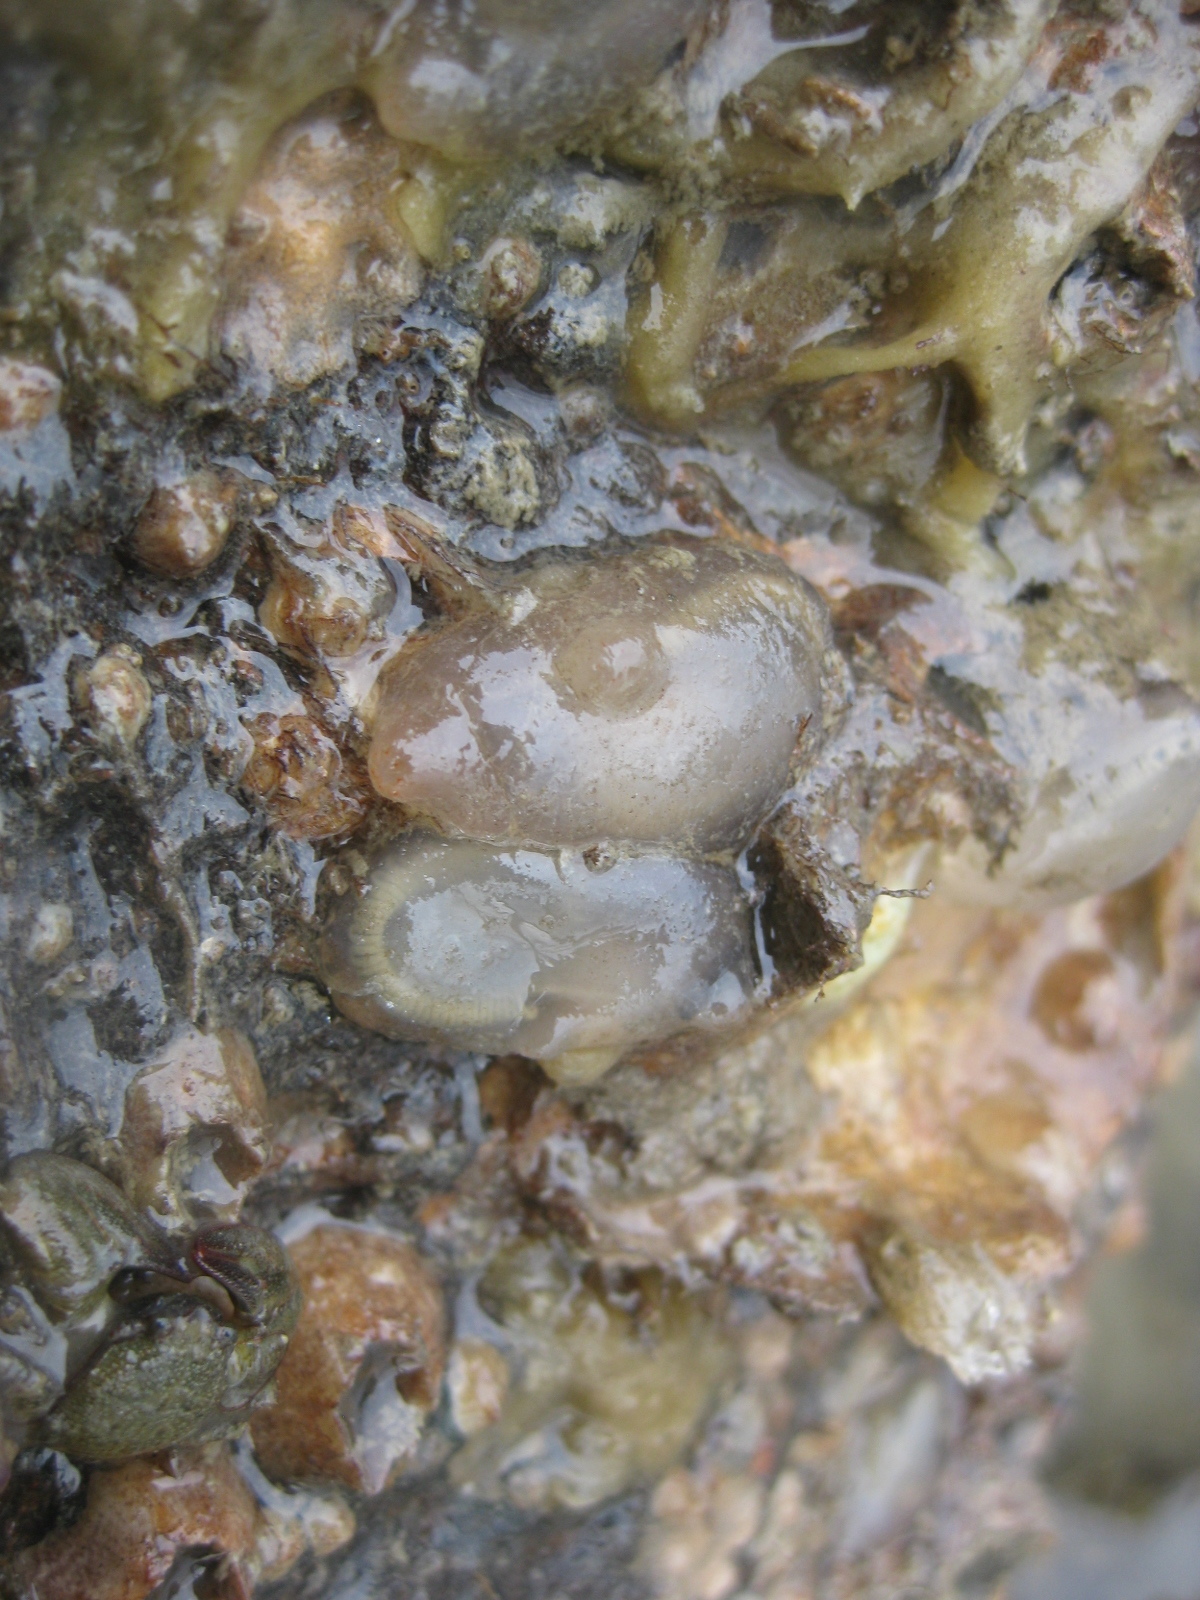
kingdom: Animalia
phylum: Chordata
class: Ascidiacea
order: Phlebobranchia
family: Agneziidae
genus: Agnezia
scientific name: Agnezia glaciata
